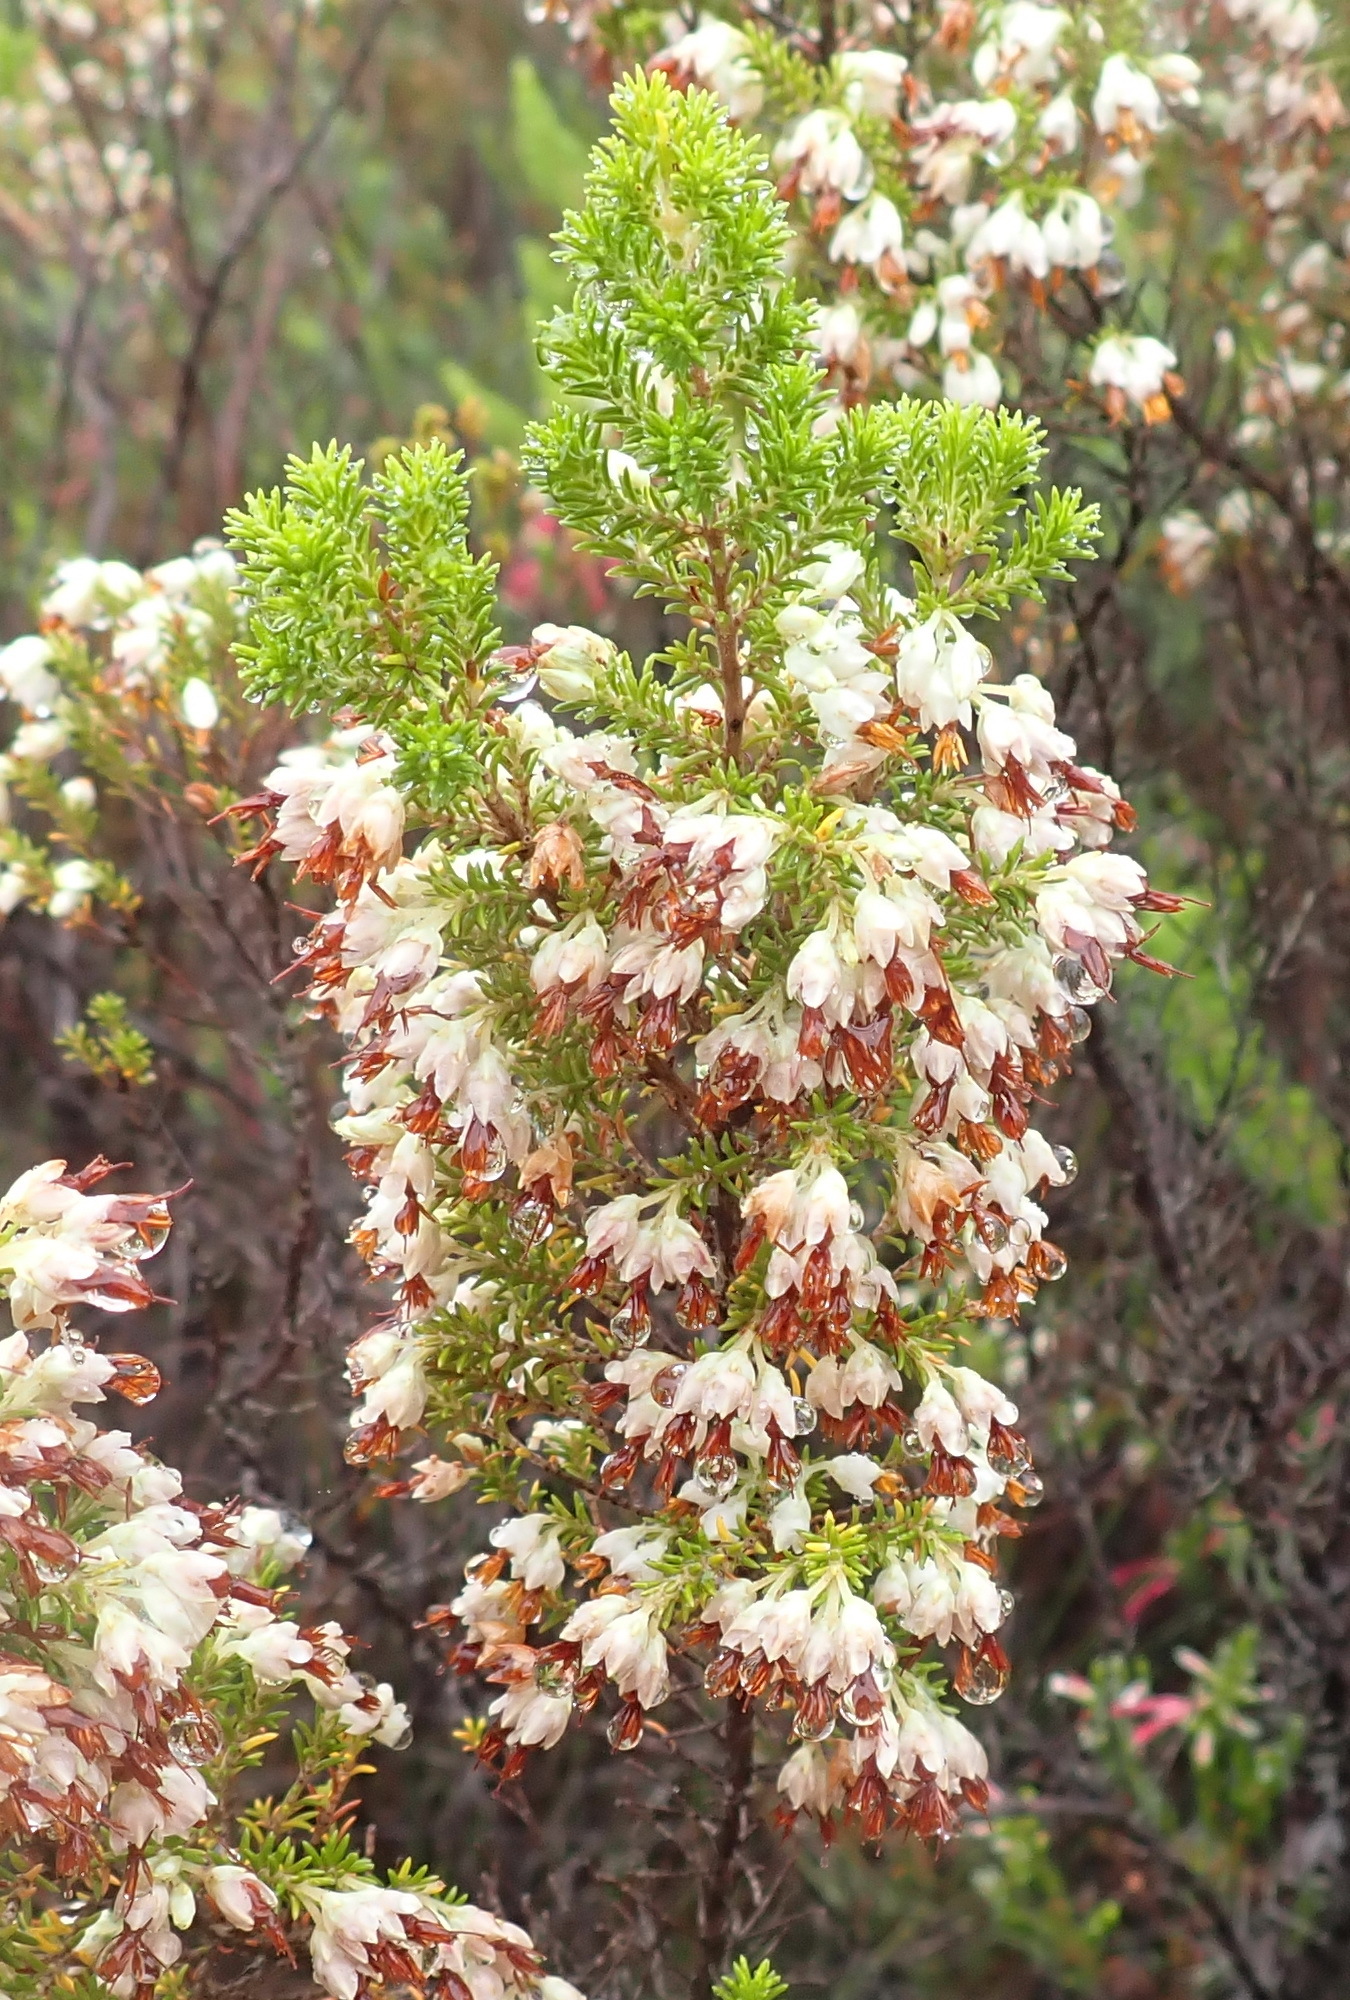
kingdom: Plantae
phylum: Tracheophyta
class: Magnoliopsida
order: Ericales
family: Ericaceae
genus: Erica
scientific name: Erica penicilliformis
